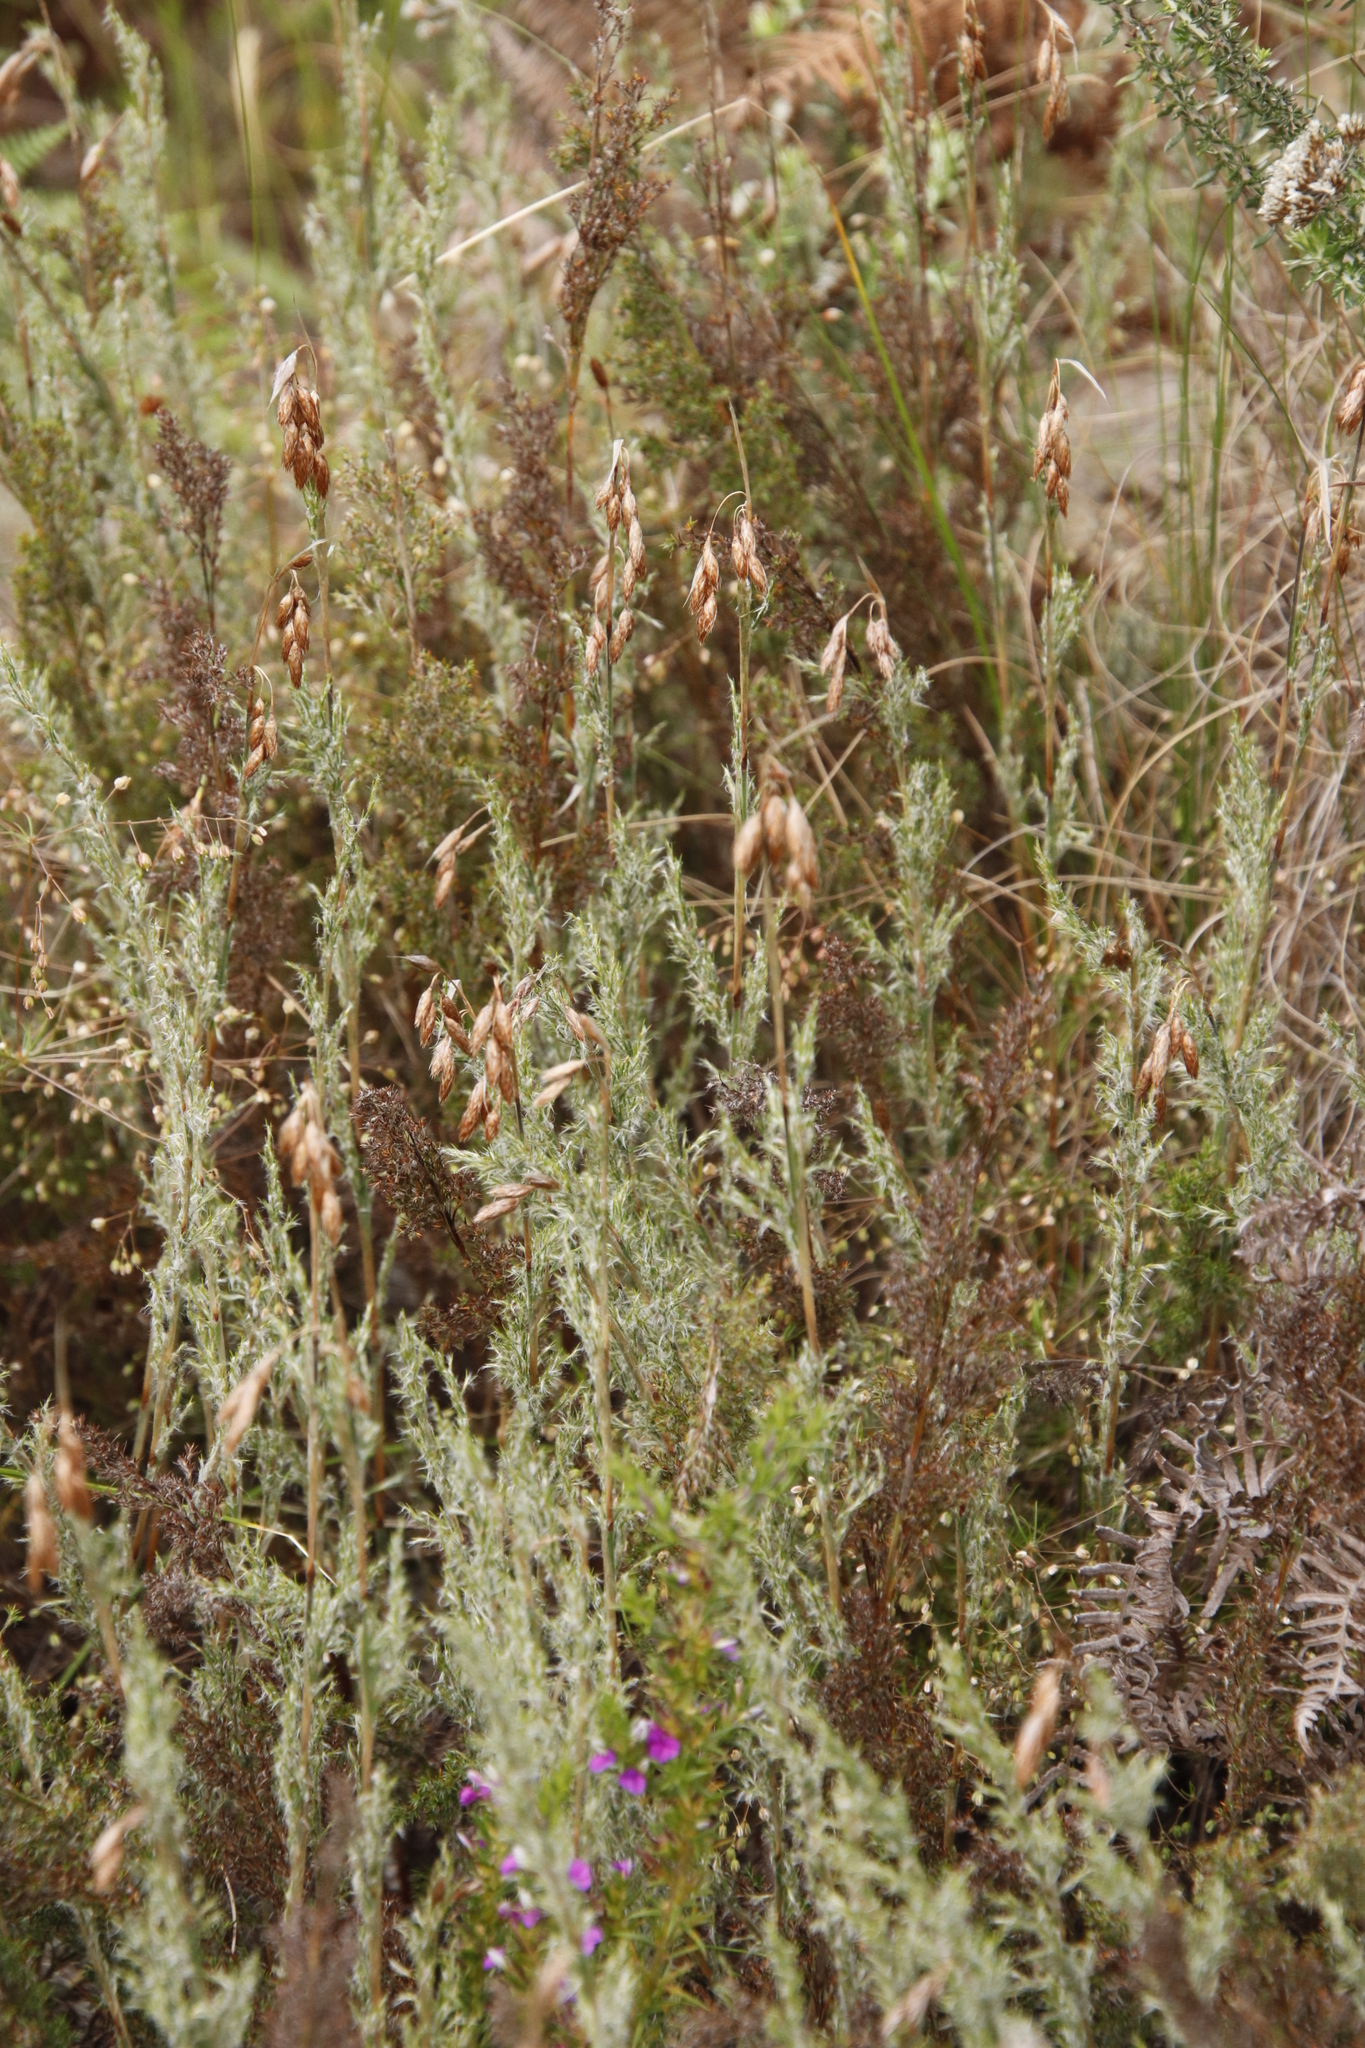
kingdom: Plantae
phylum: Tracheophyta
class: Liliopsida
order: Poales
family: Restionaceae
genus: Thamnochortus
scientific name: Thamnochortus fruticosus
